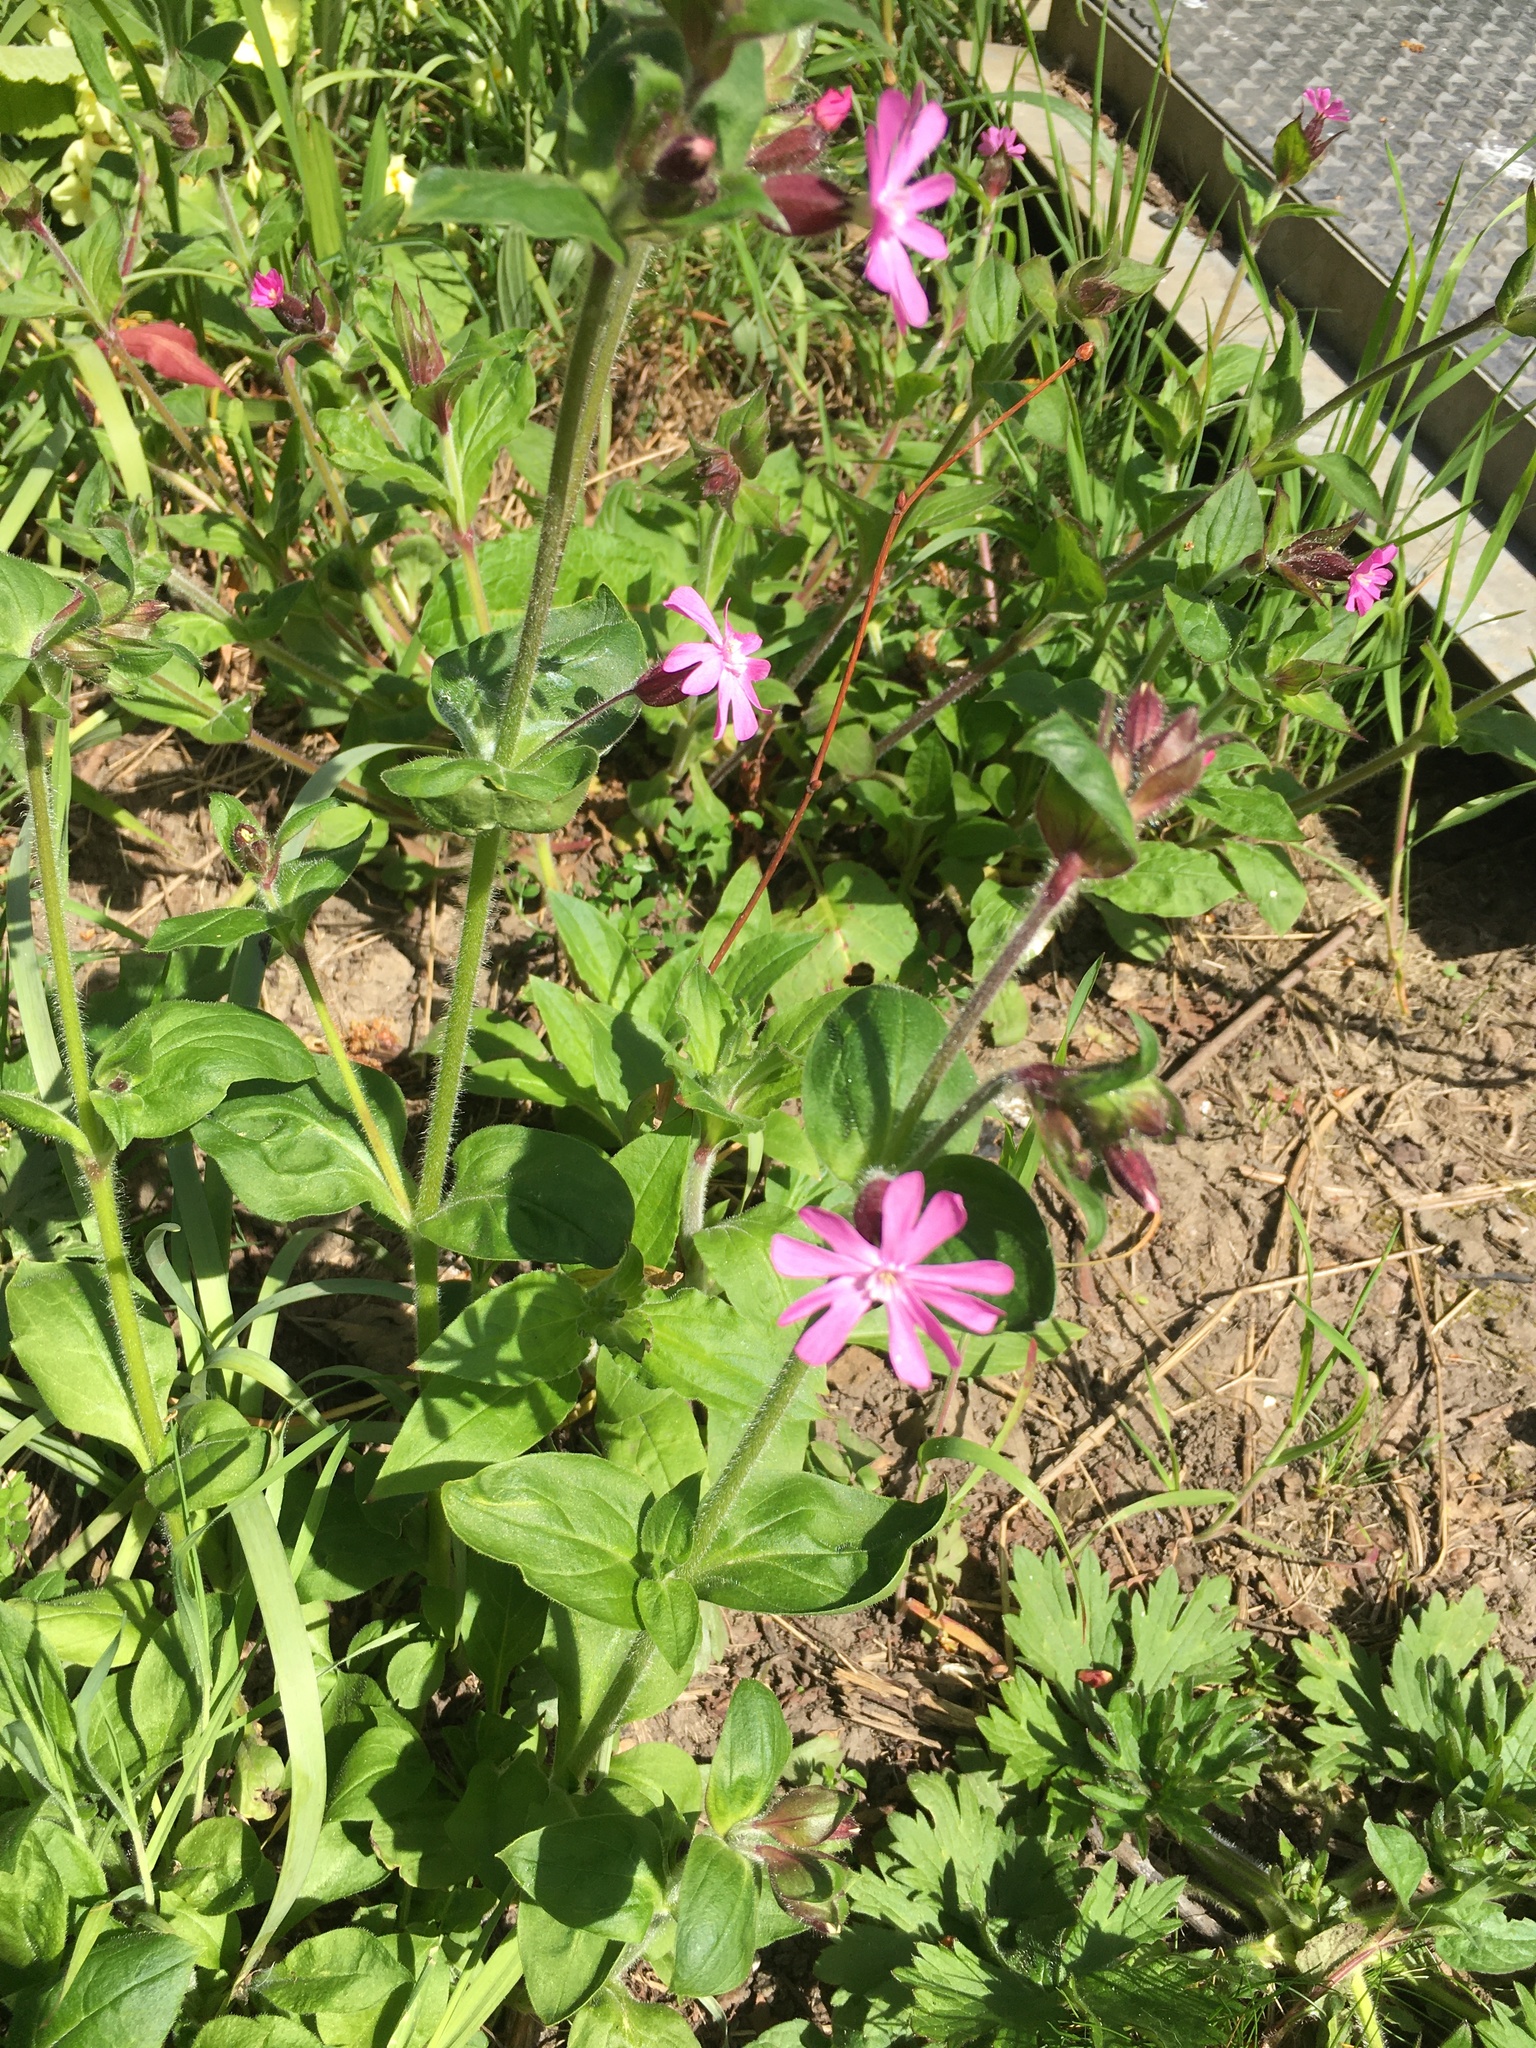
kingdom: Plantae
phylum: Tracheophyta
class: Magnoliopsida
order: Caryophyllales
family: Caryophyllaceae
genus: Silene
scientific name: Silene dioica
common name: Red campion
